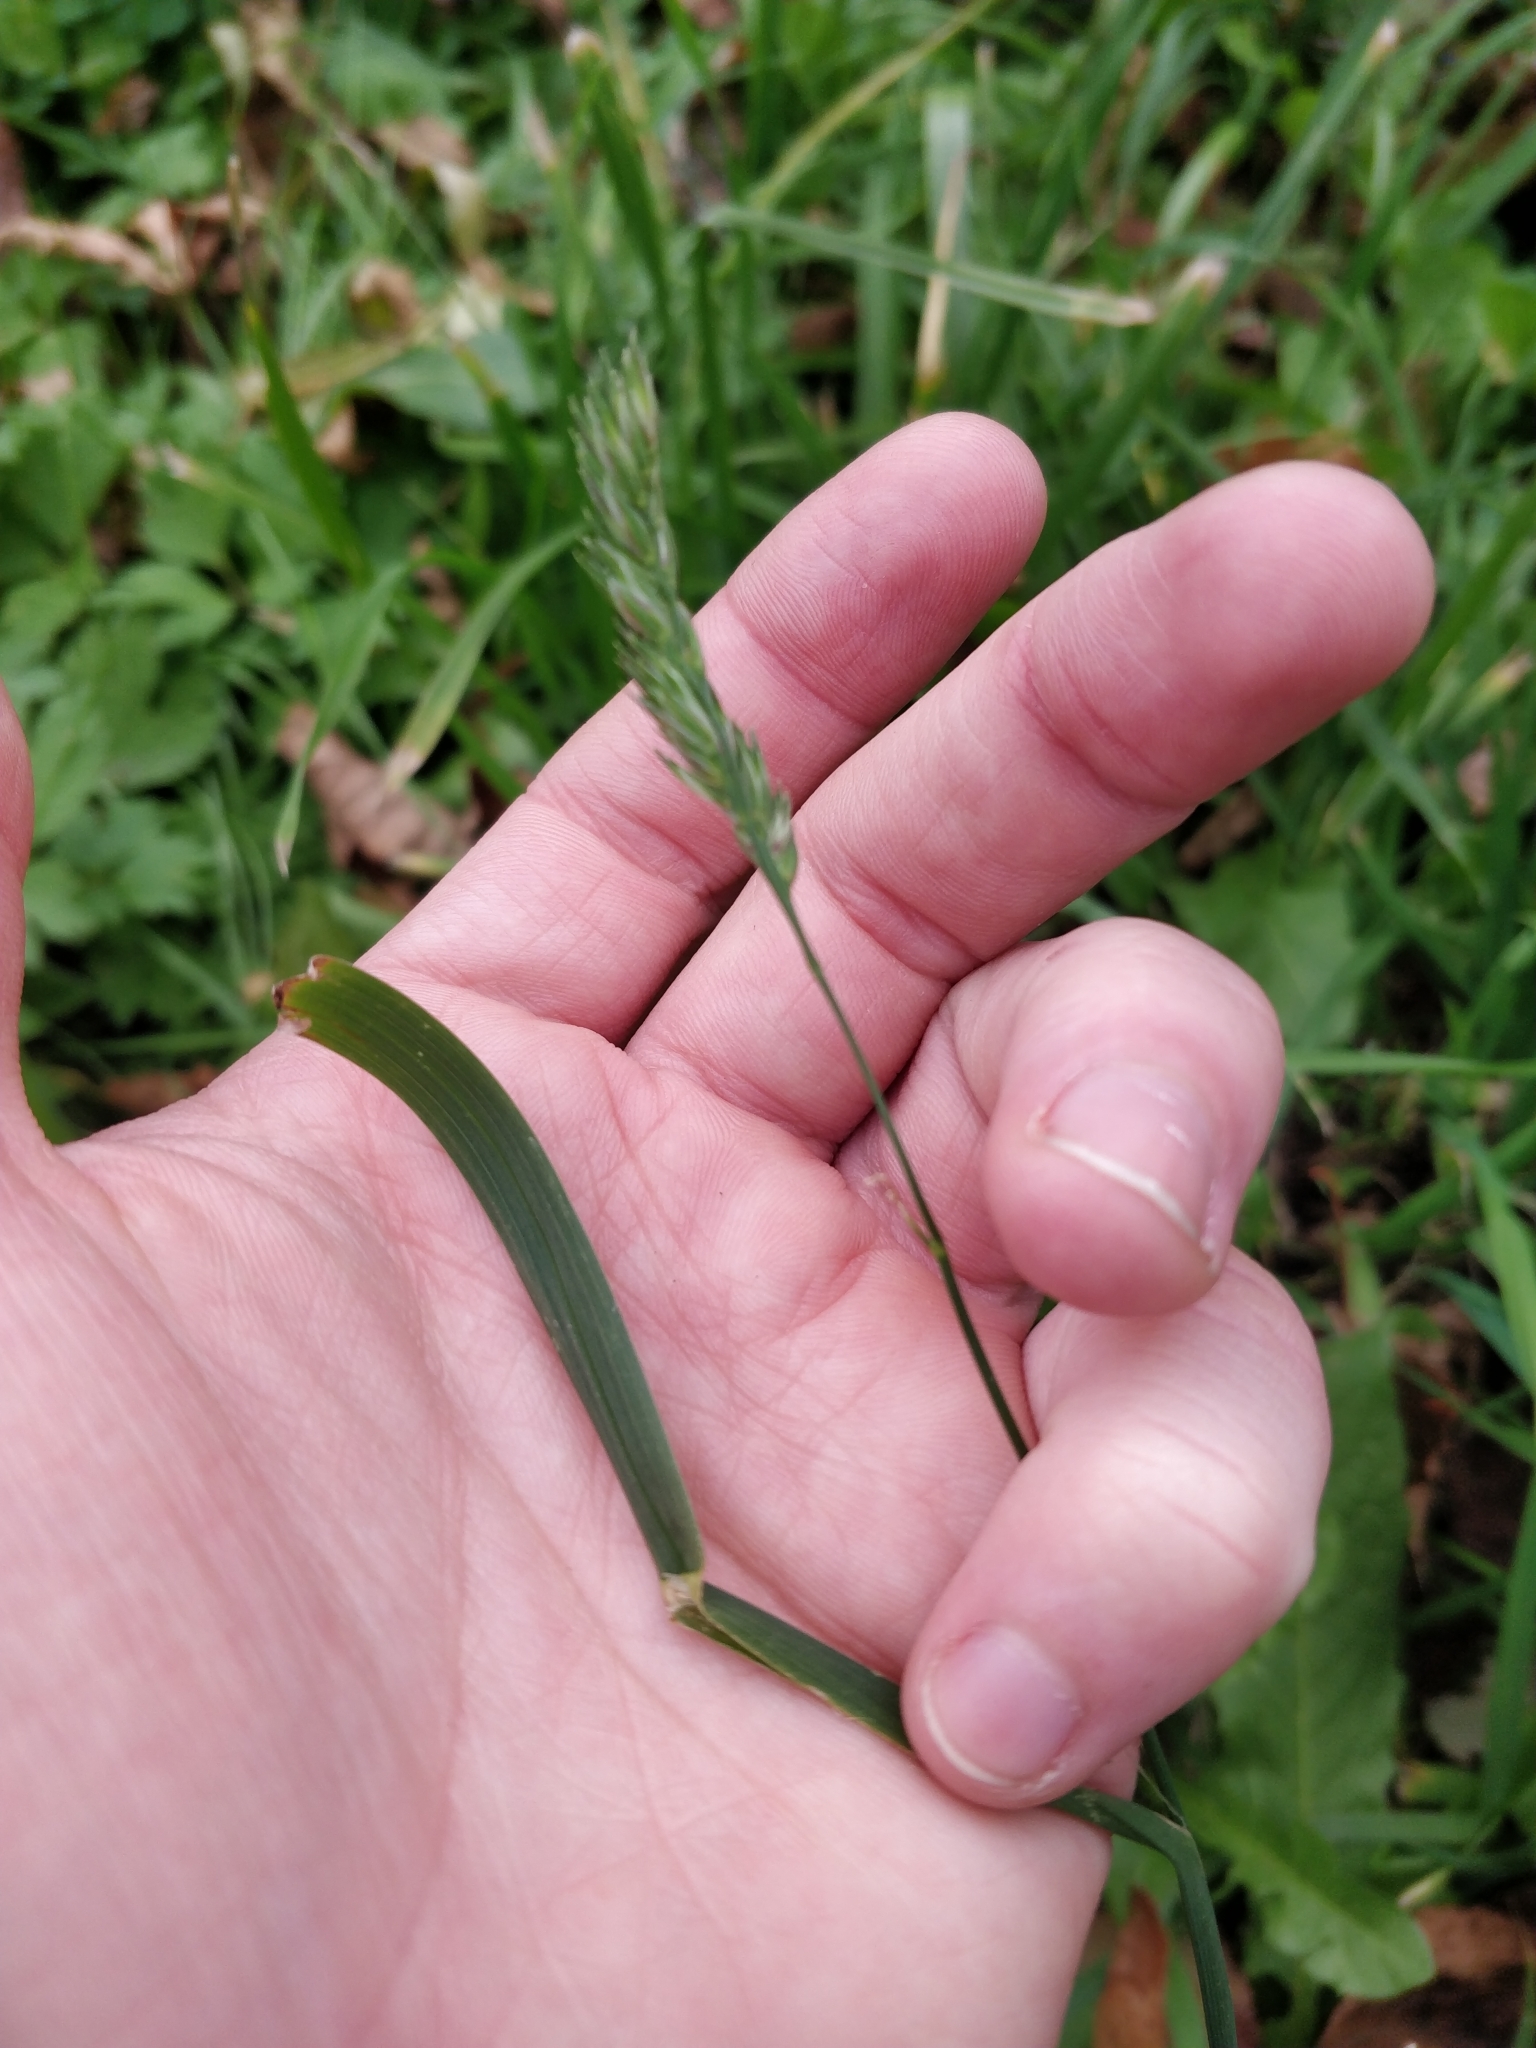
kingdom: Plantae
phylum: Tracheophyta
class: Liliopsida
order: Poales
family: Poaceae
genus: Dactylis
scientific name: Dactylis glomerata
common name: Orchardgrass
